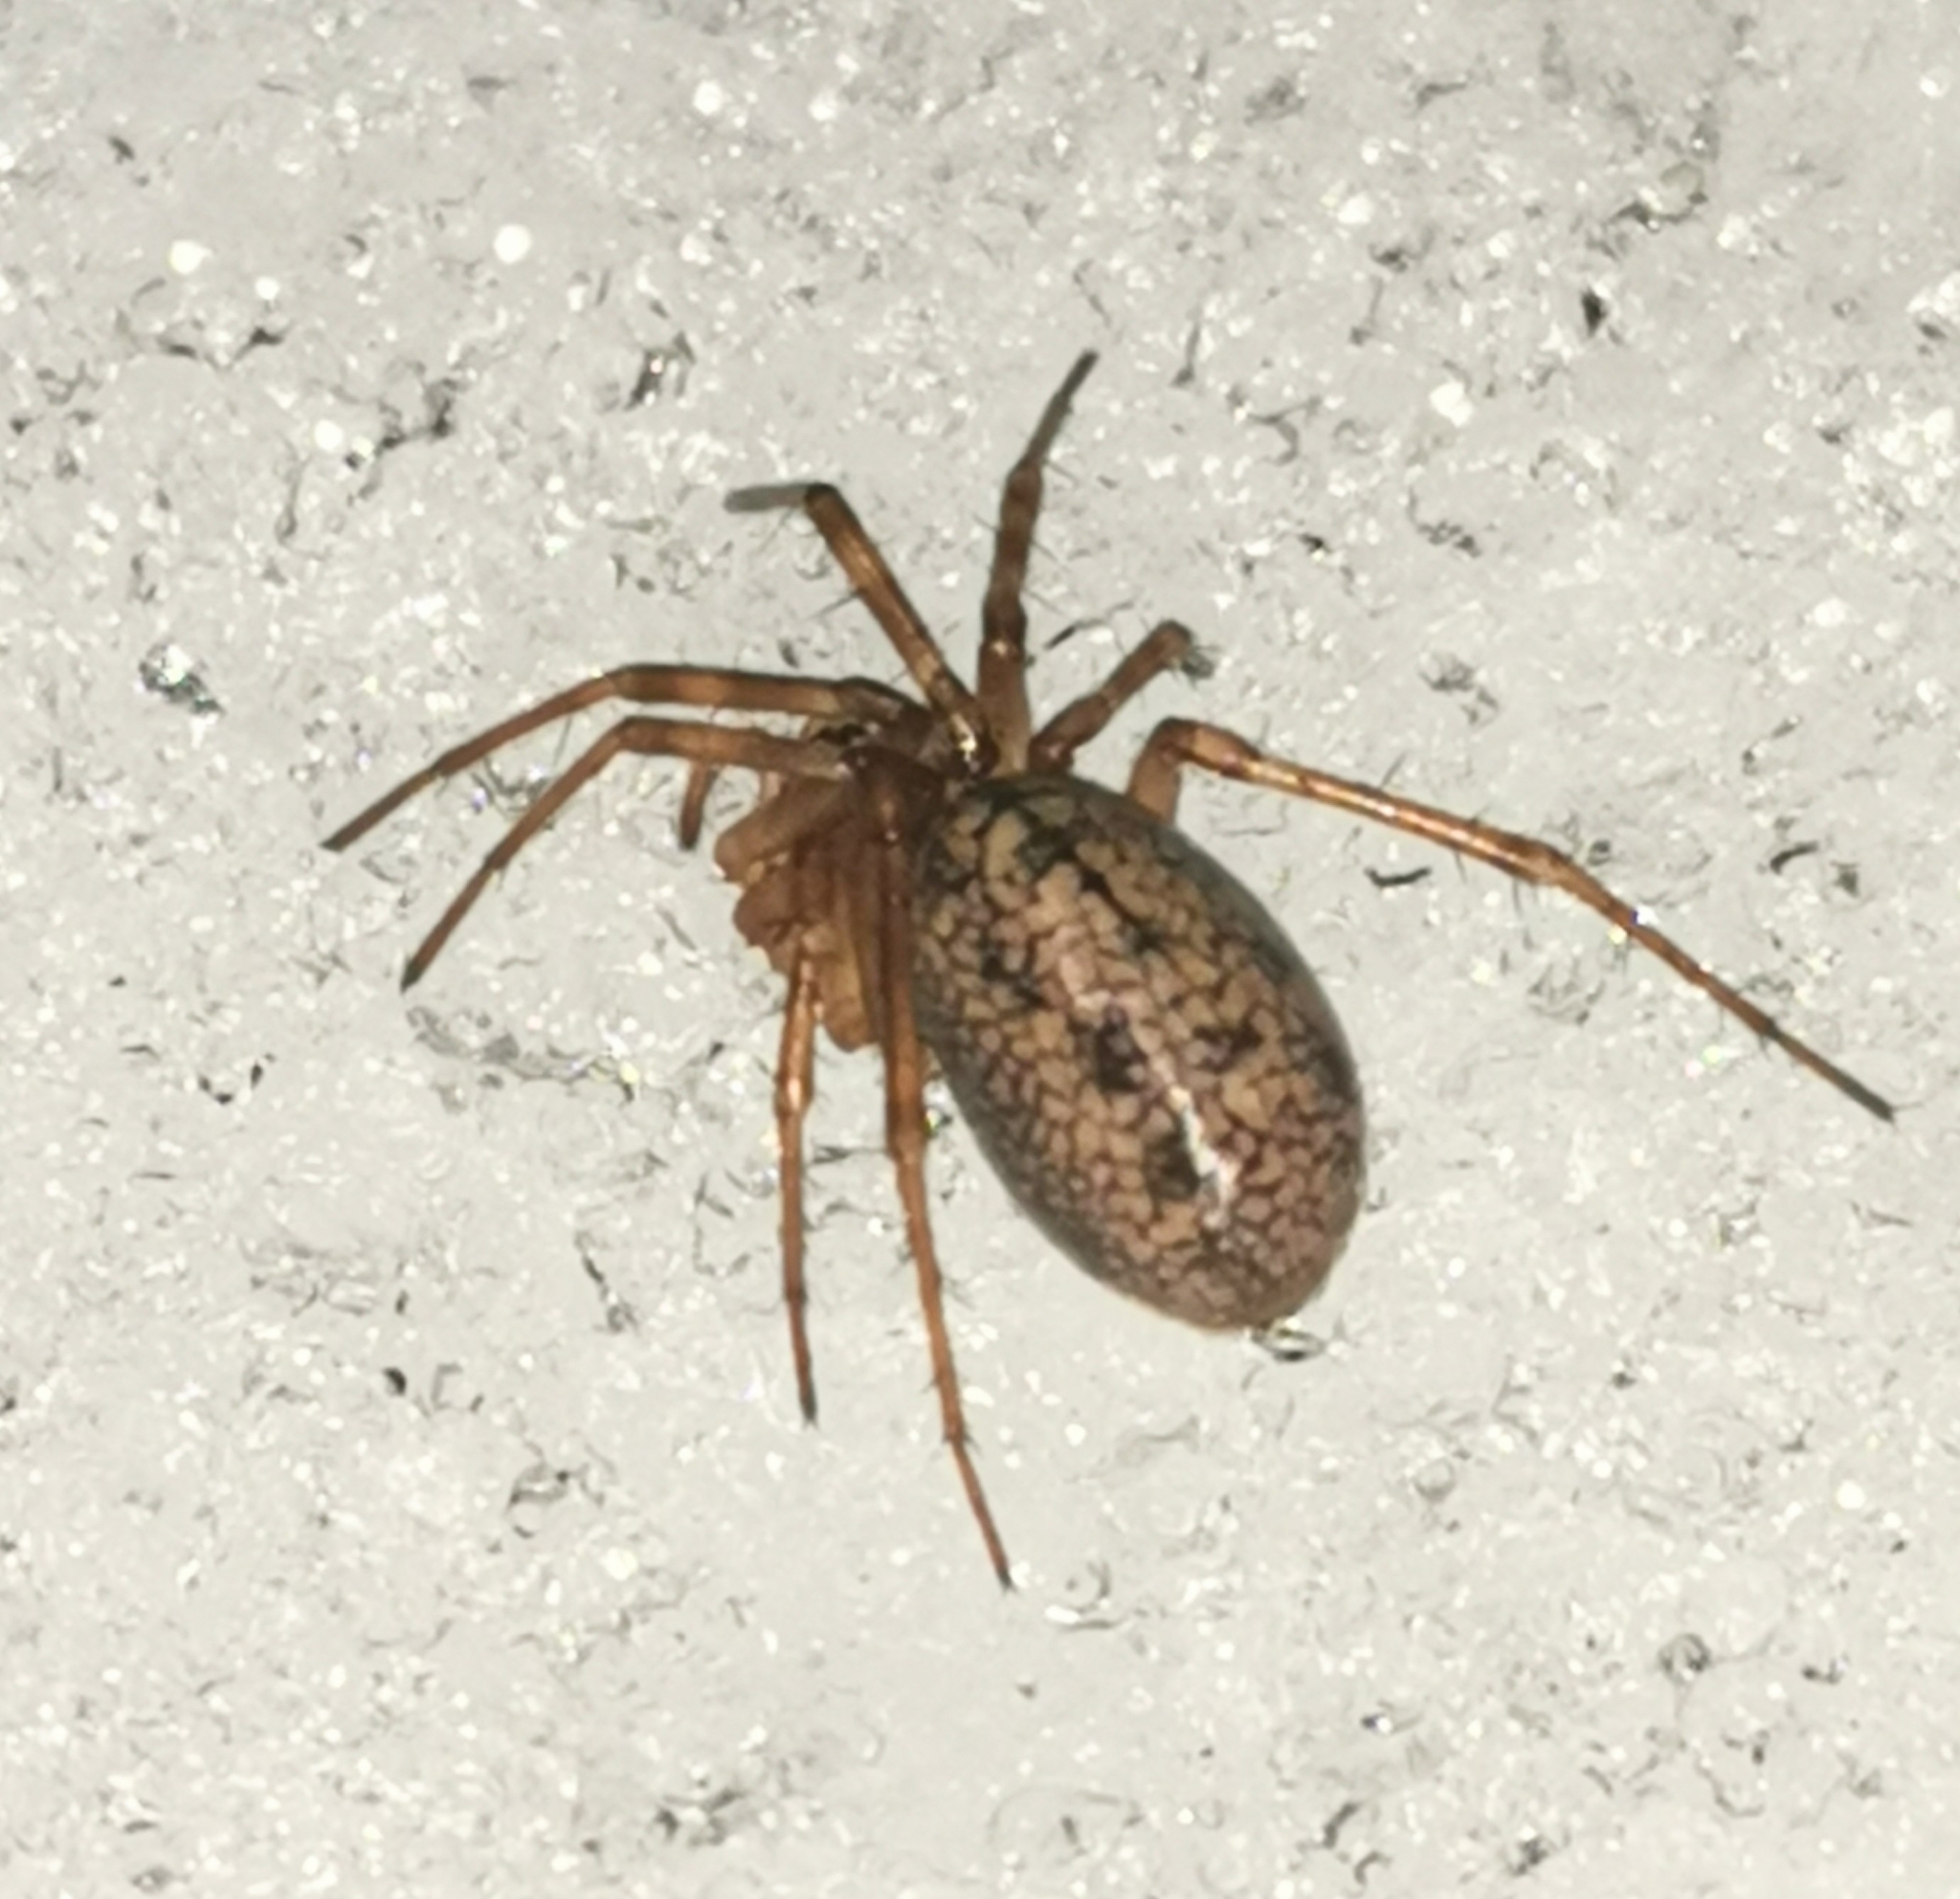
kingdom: Animalia
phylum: Arthropoda
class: Arachnida
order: Araneae
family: Linyphiidae
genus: Stemonyphantes
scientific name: Stemonyphantes lineatus
